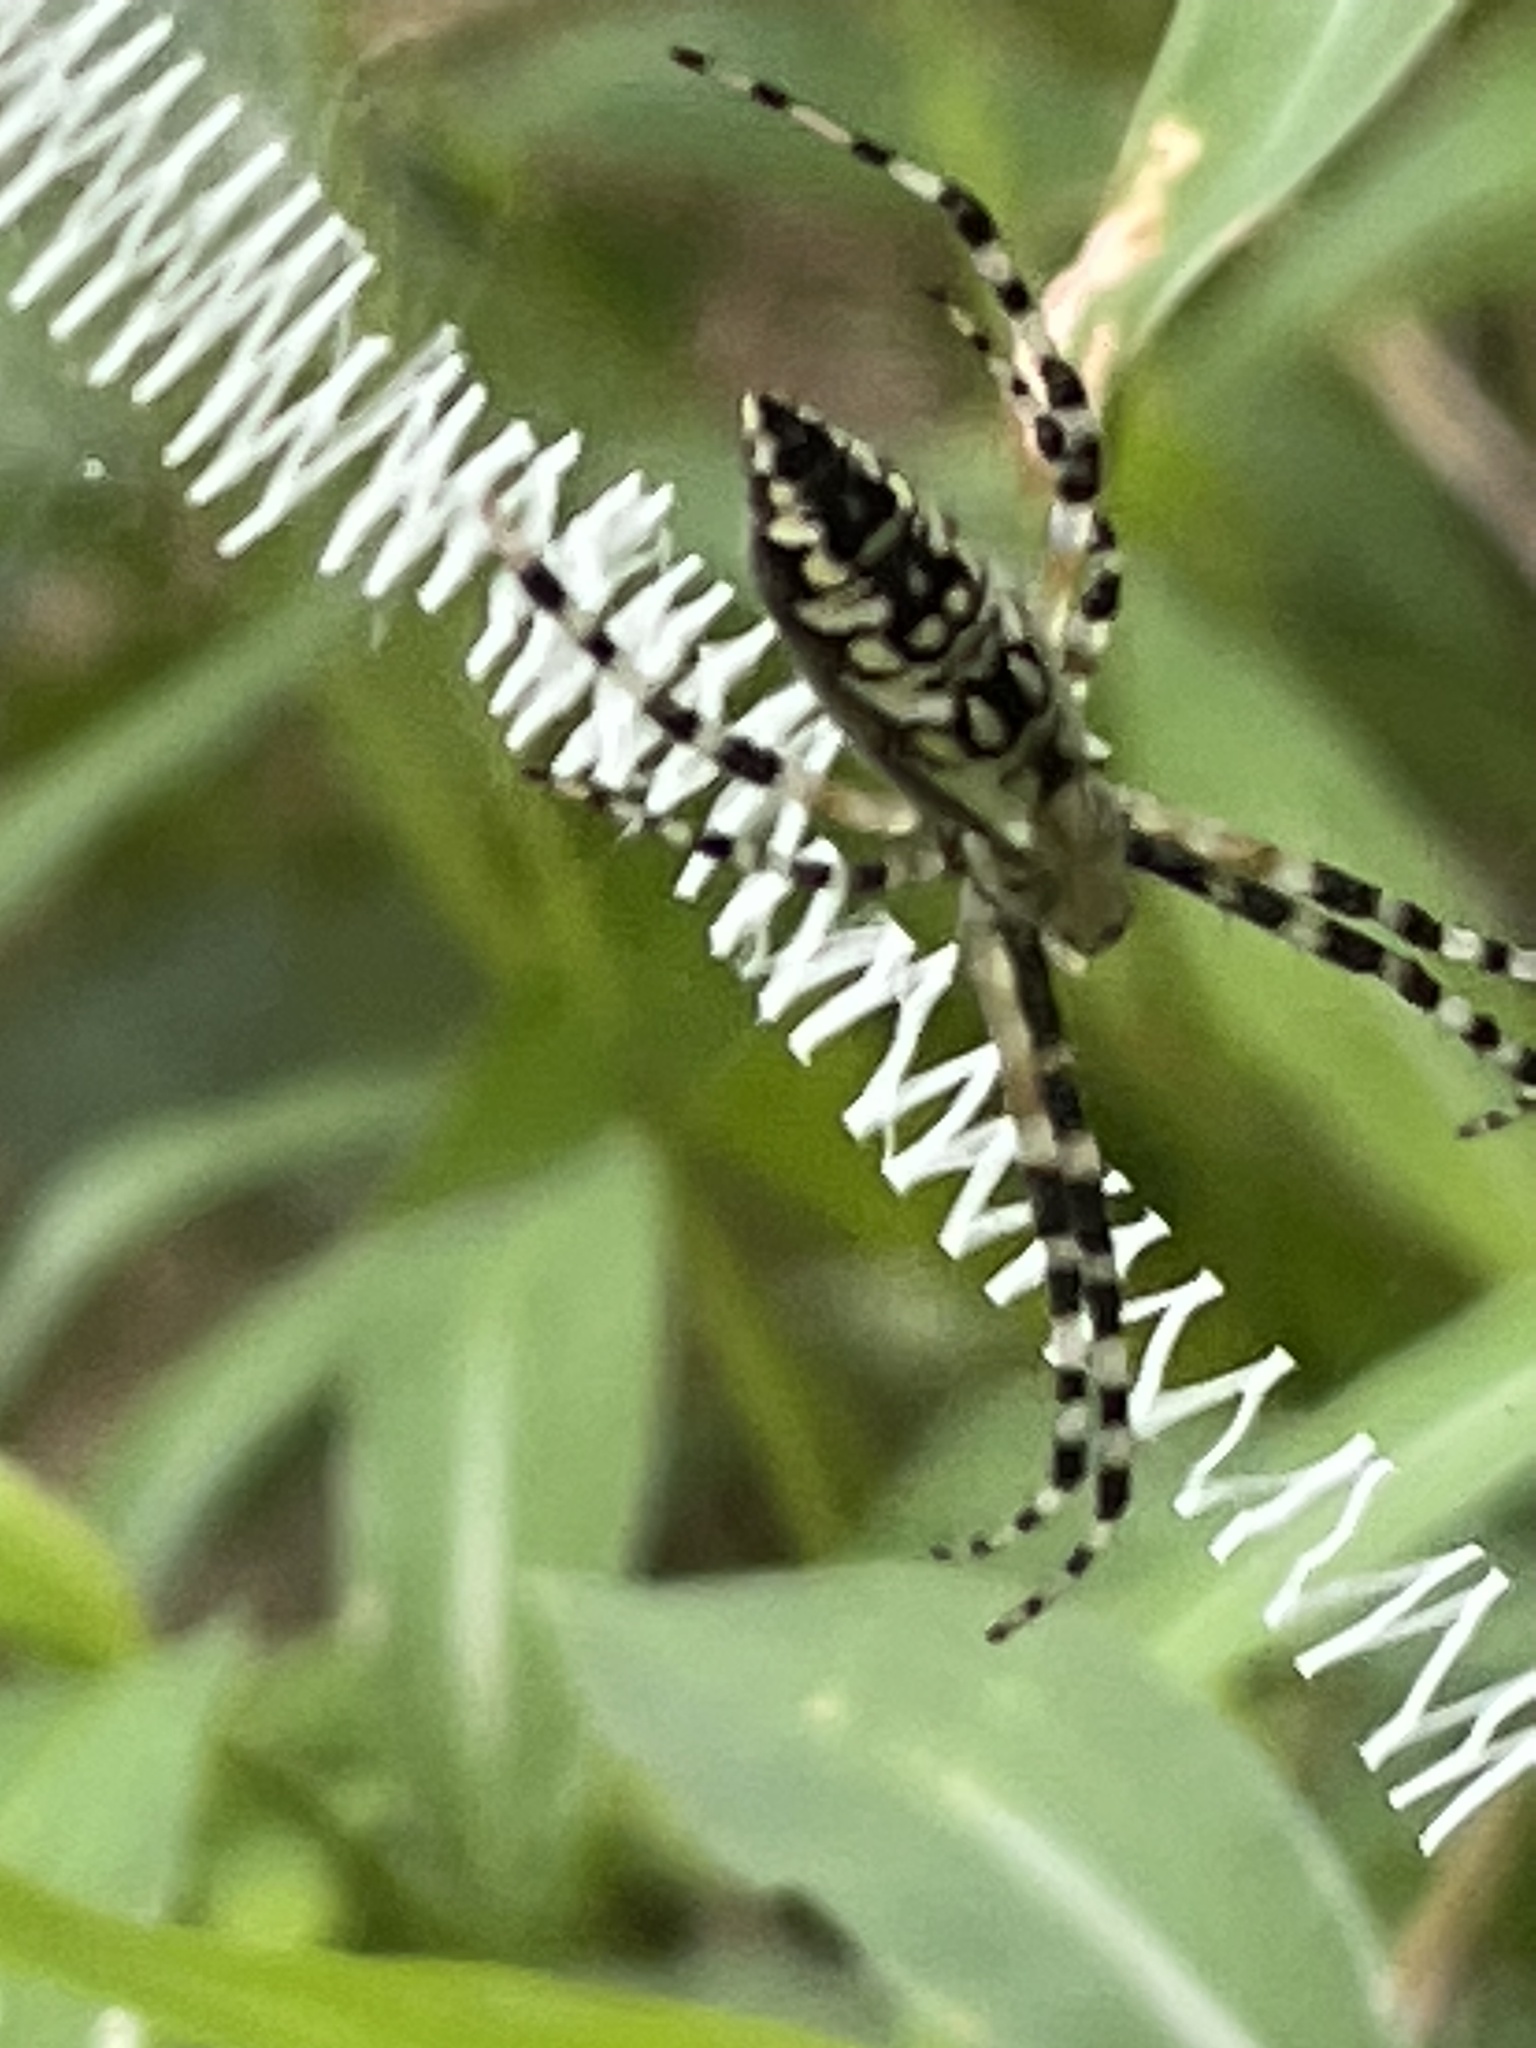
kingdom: Animalia
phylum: Arthropoda
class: Arachnida
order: Araneae
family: Araneidae
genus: Argiope
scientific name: Argiope aurantia
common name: Orb weavers
